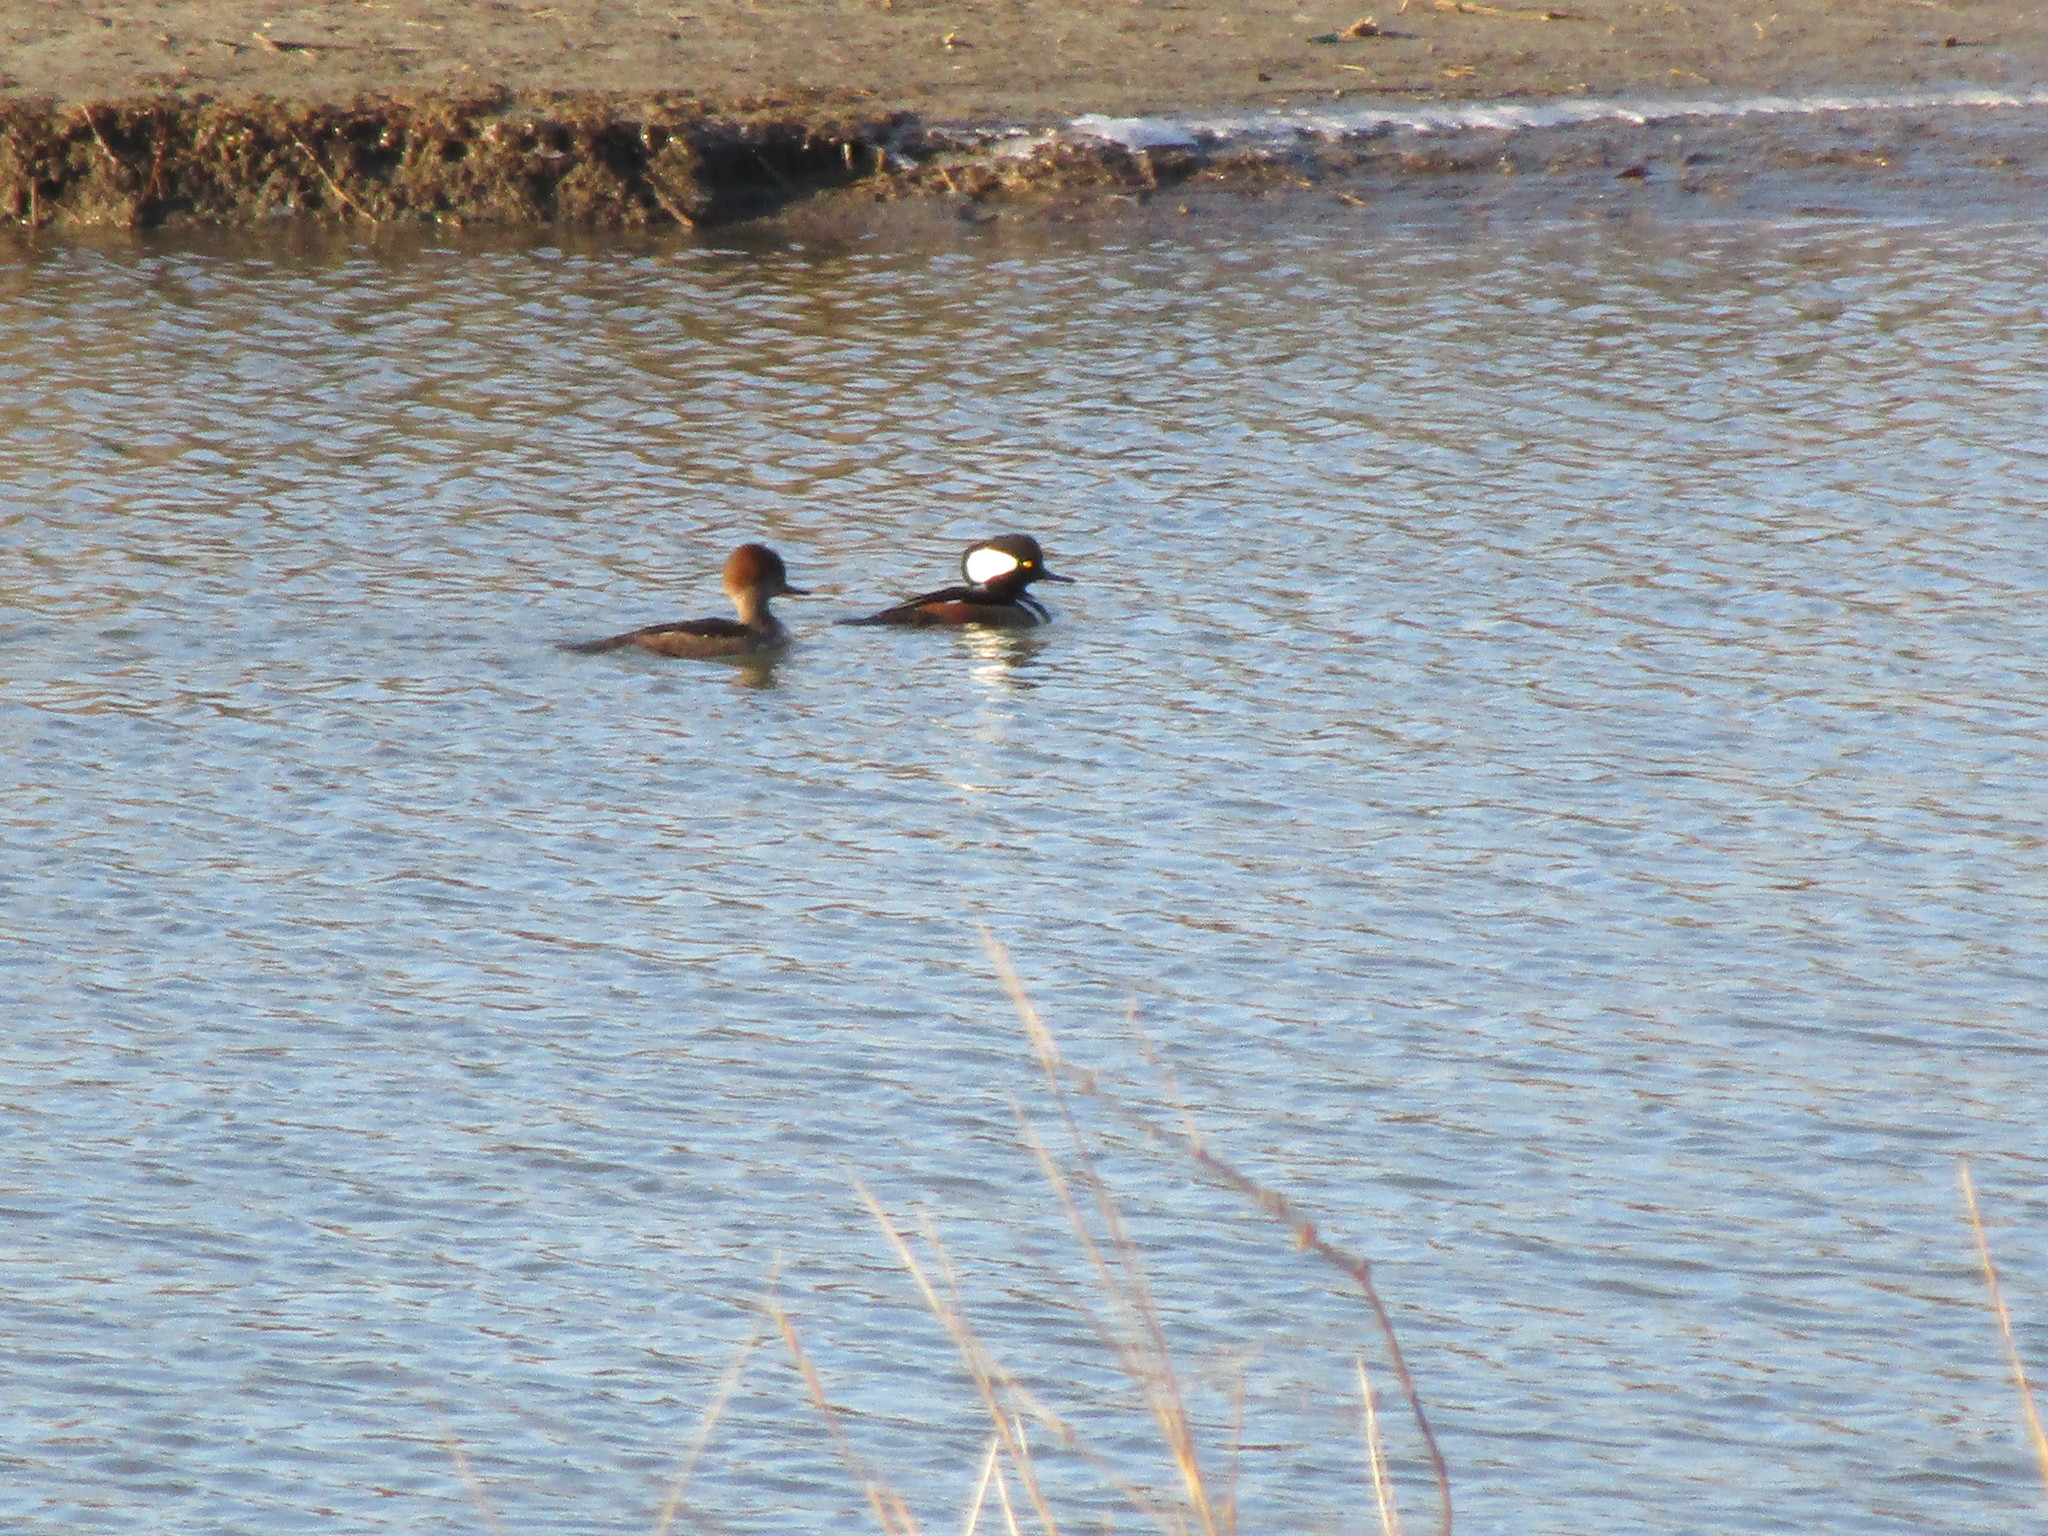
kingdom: Animalia
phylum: Chordata
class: Aves
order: Anseriformes
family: Anatidae
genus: Lophodytes
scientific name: Lophodytes cucullatus
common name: Hooded merganser
